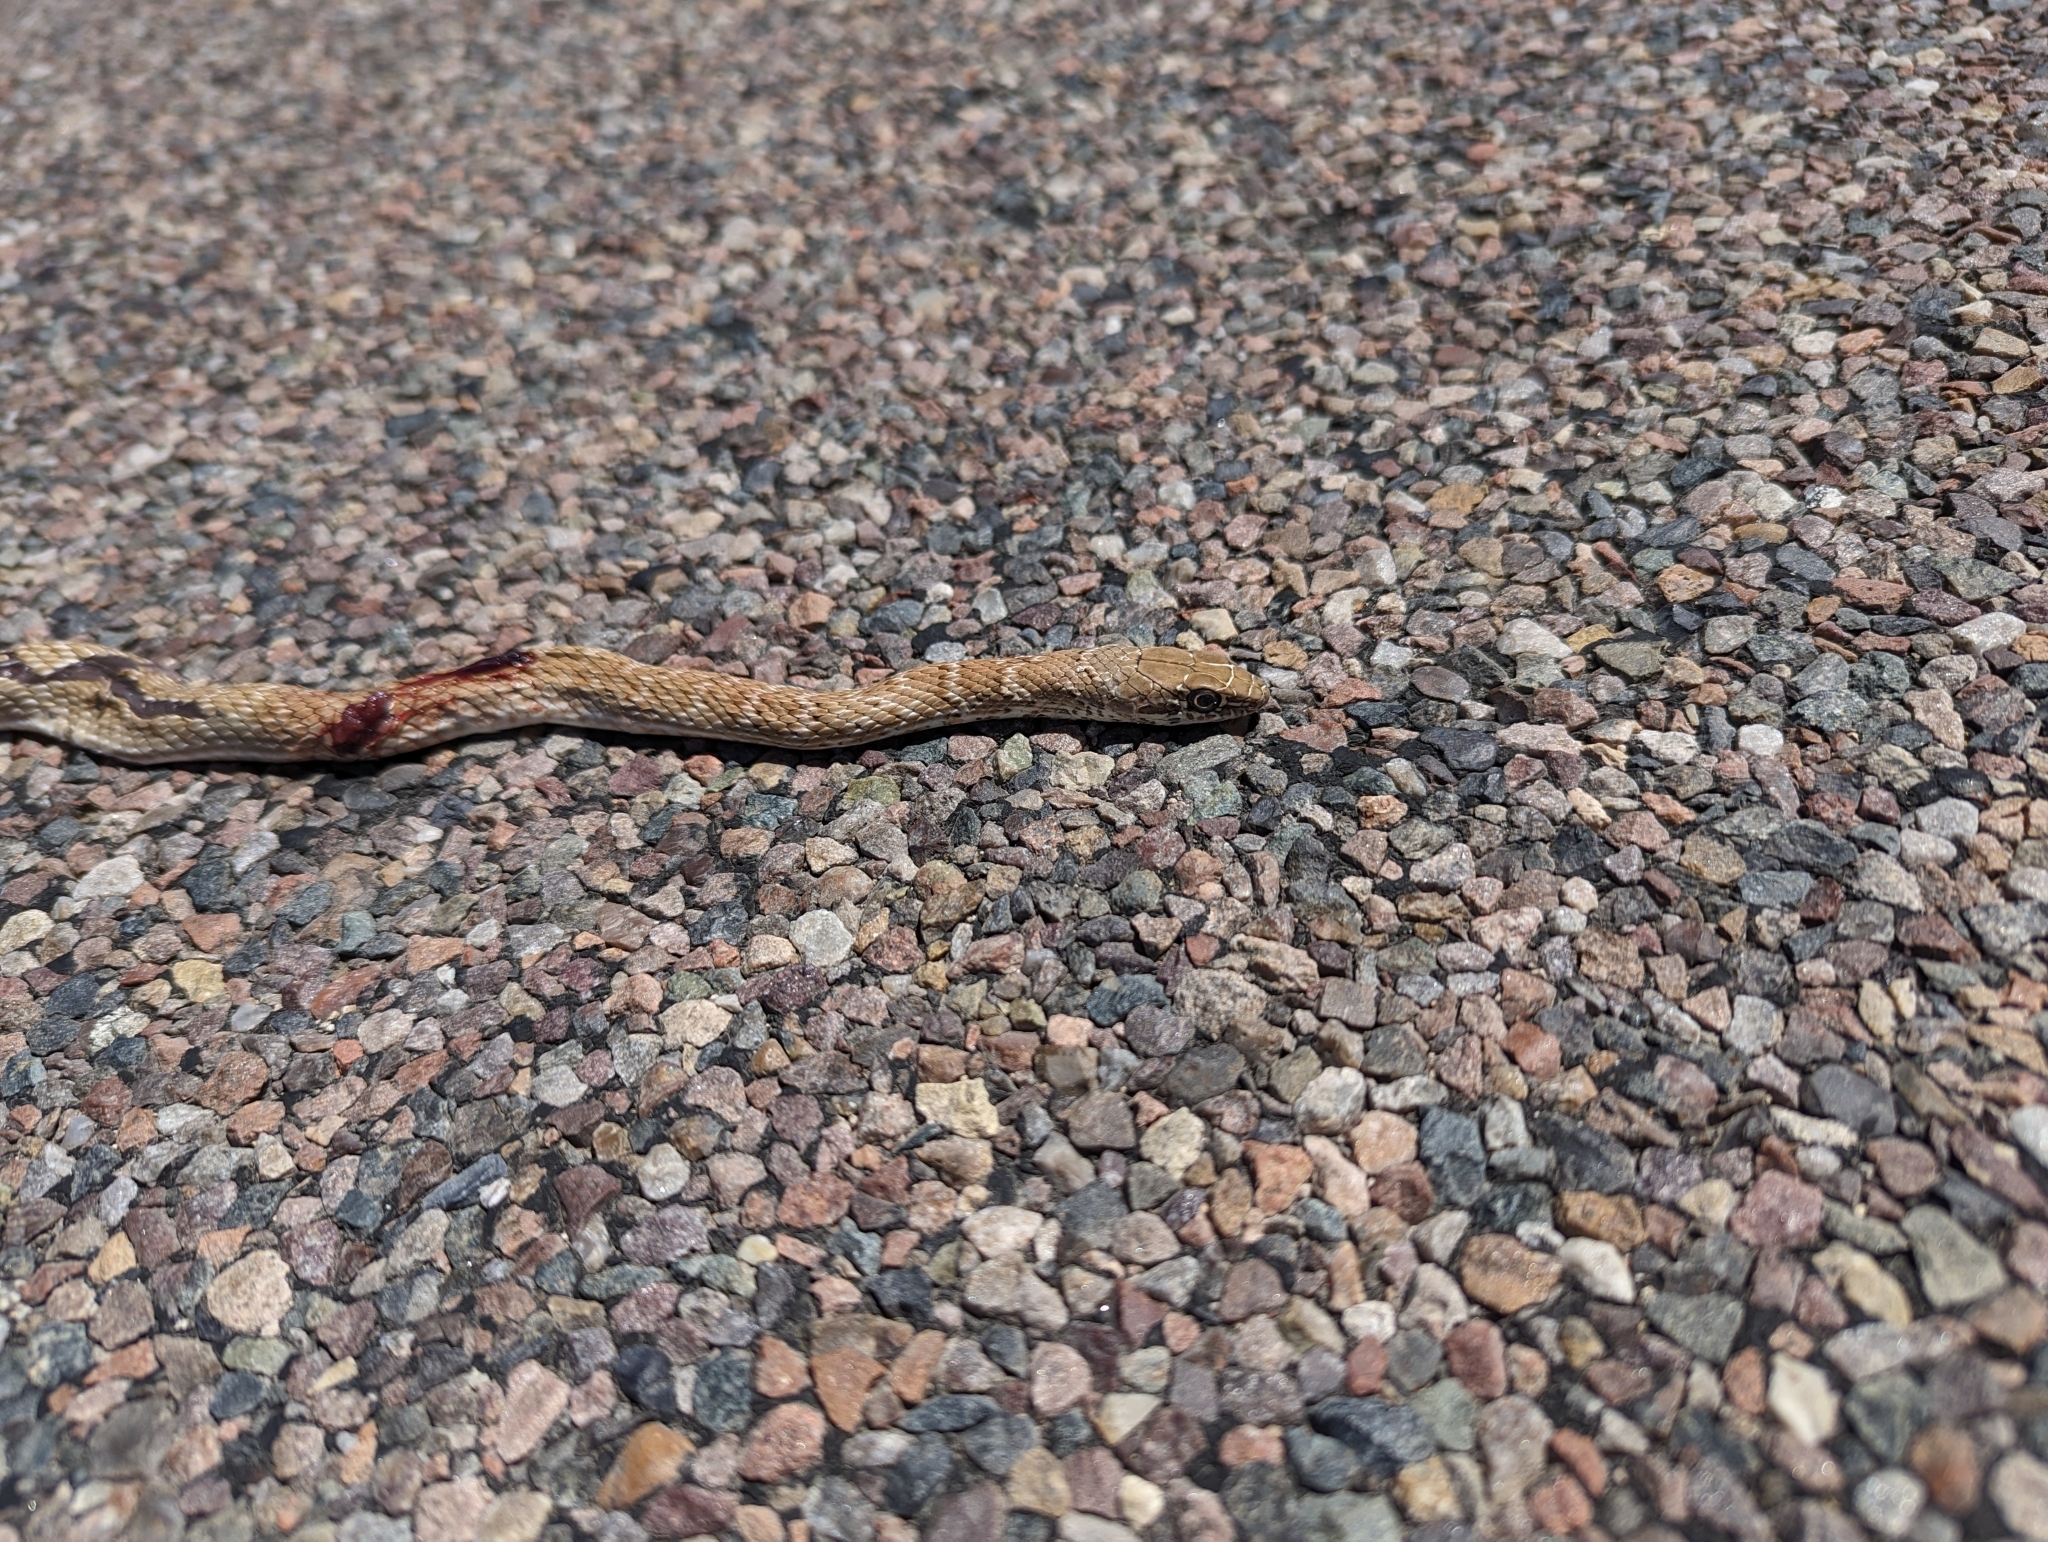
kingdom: Animalia
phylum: Chordata
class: Squamata
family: Colubridae
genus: Masticophis
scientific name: Masticophis flagellum
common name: Coachwhip
